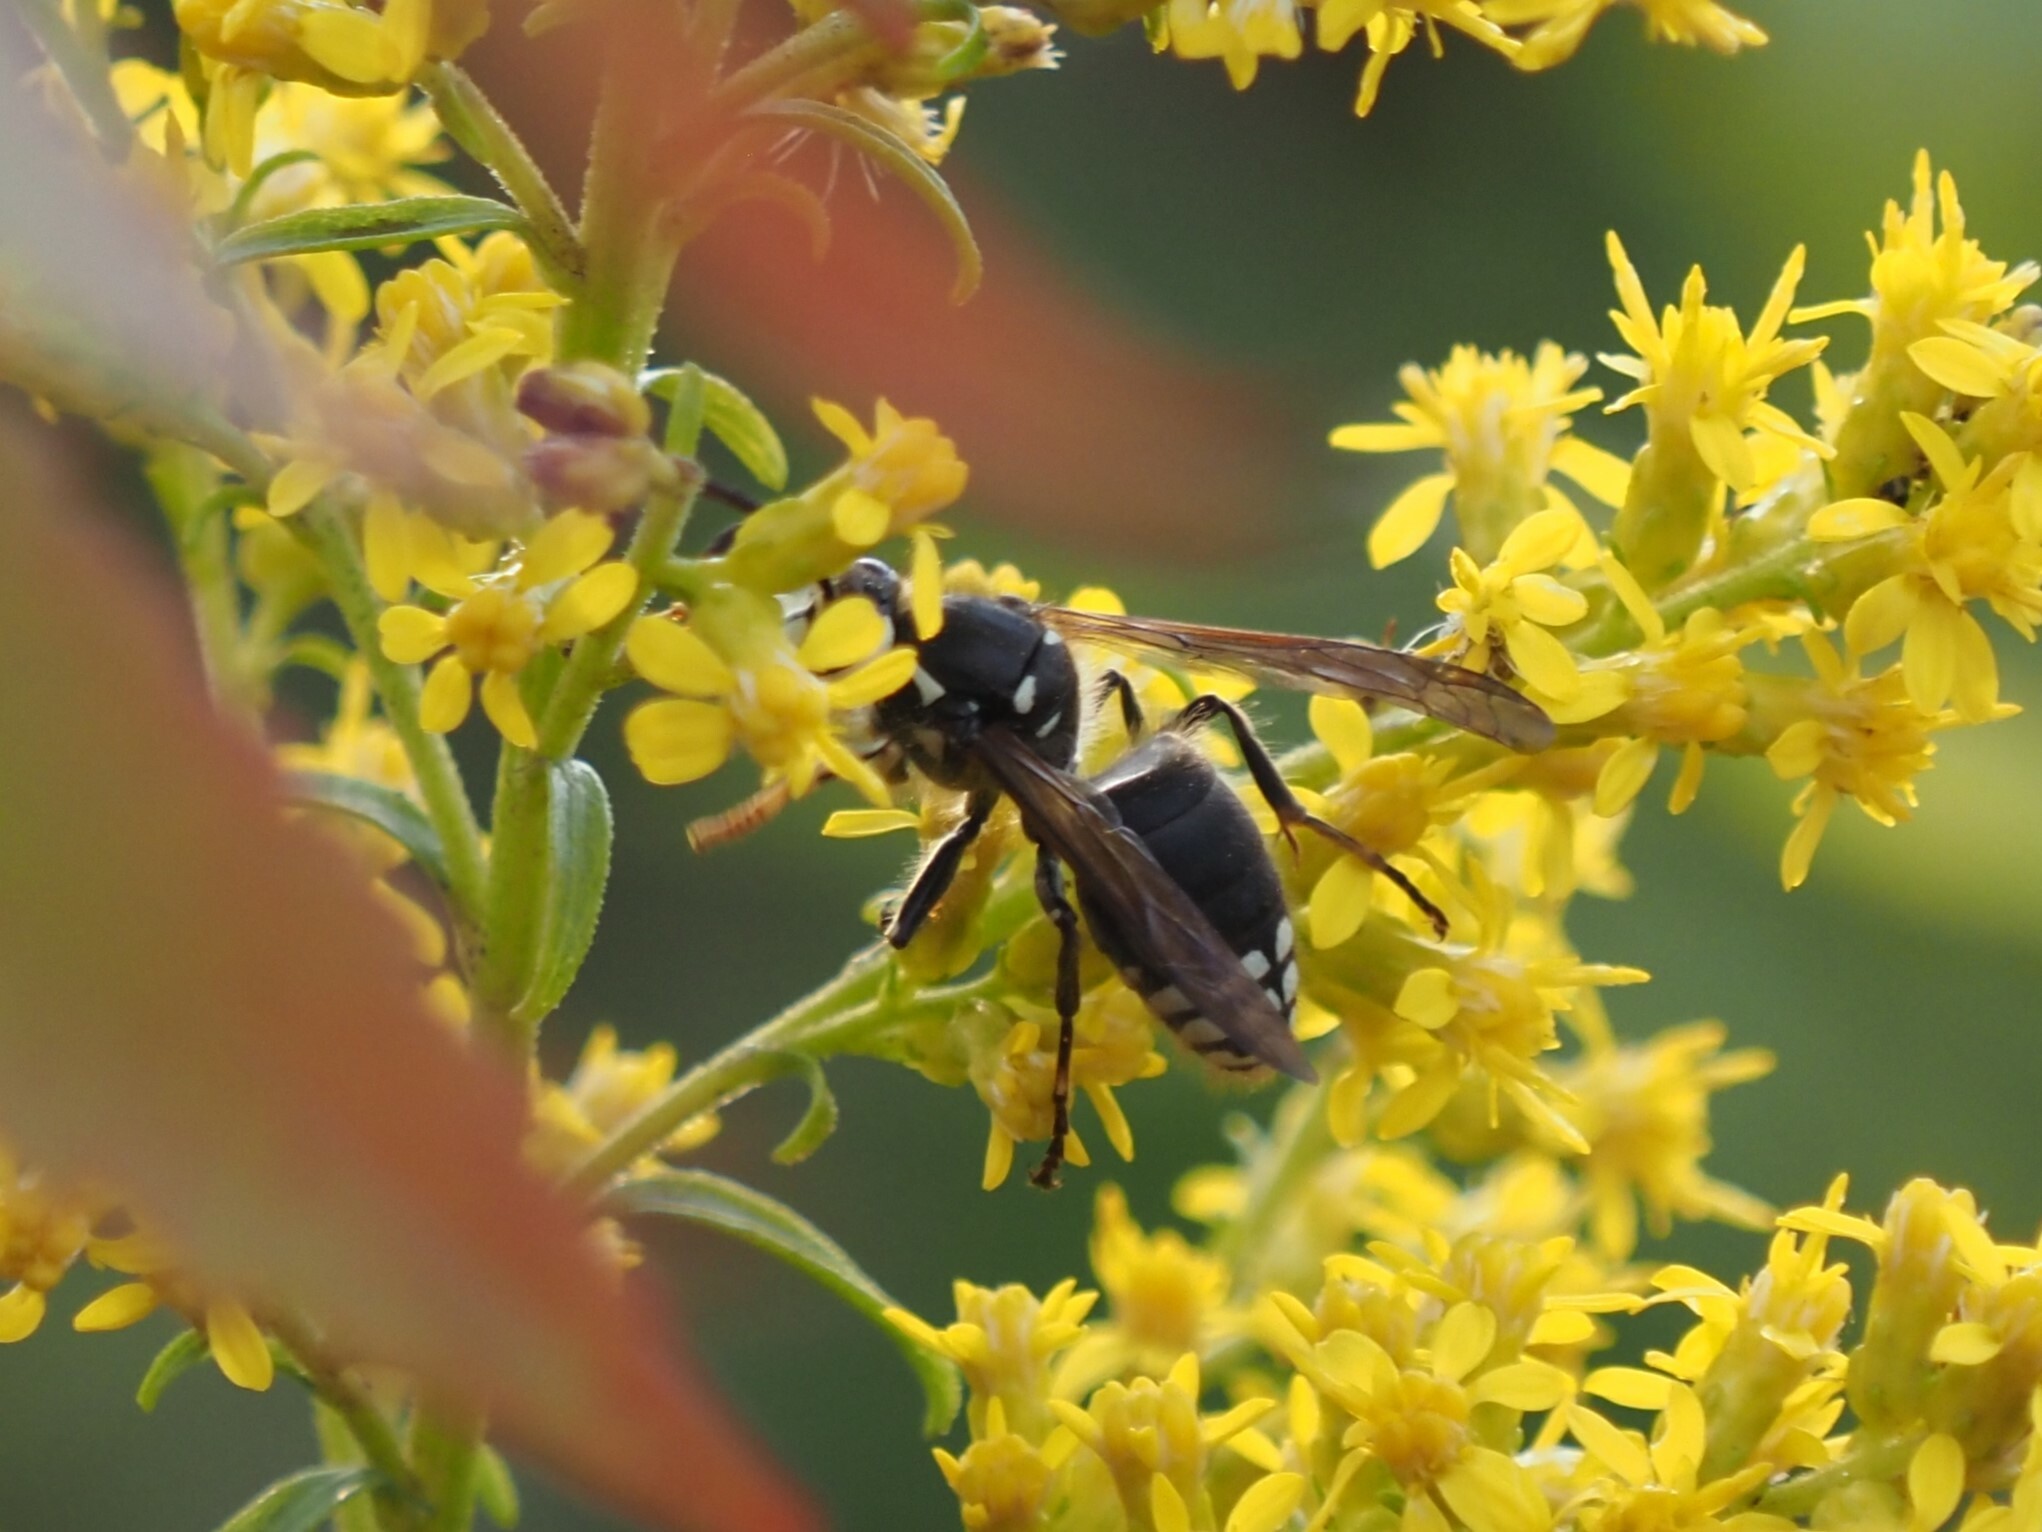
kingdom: Animalia
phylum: Arthropoda
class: Insecta
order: Hymenoptera
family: Vespidae
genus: Dolichovespula
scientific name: Dolichovespula maculata
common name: Bald-faced hornet
